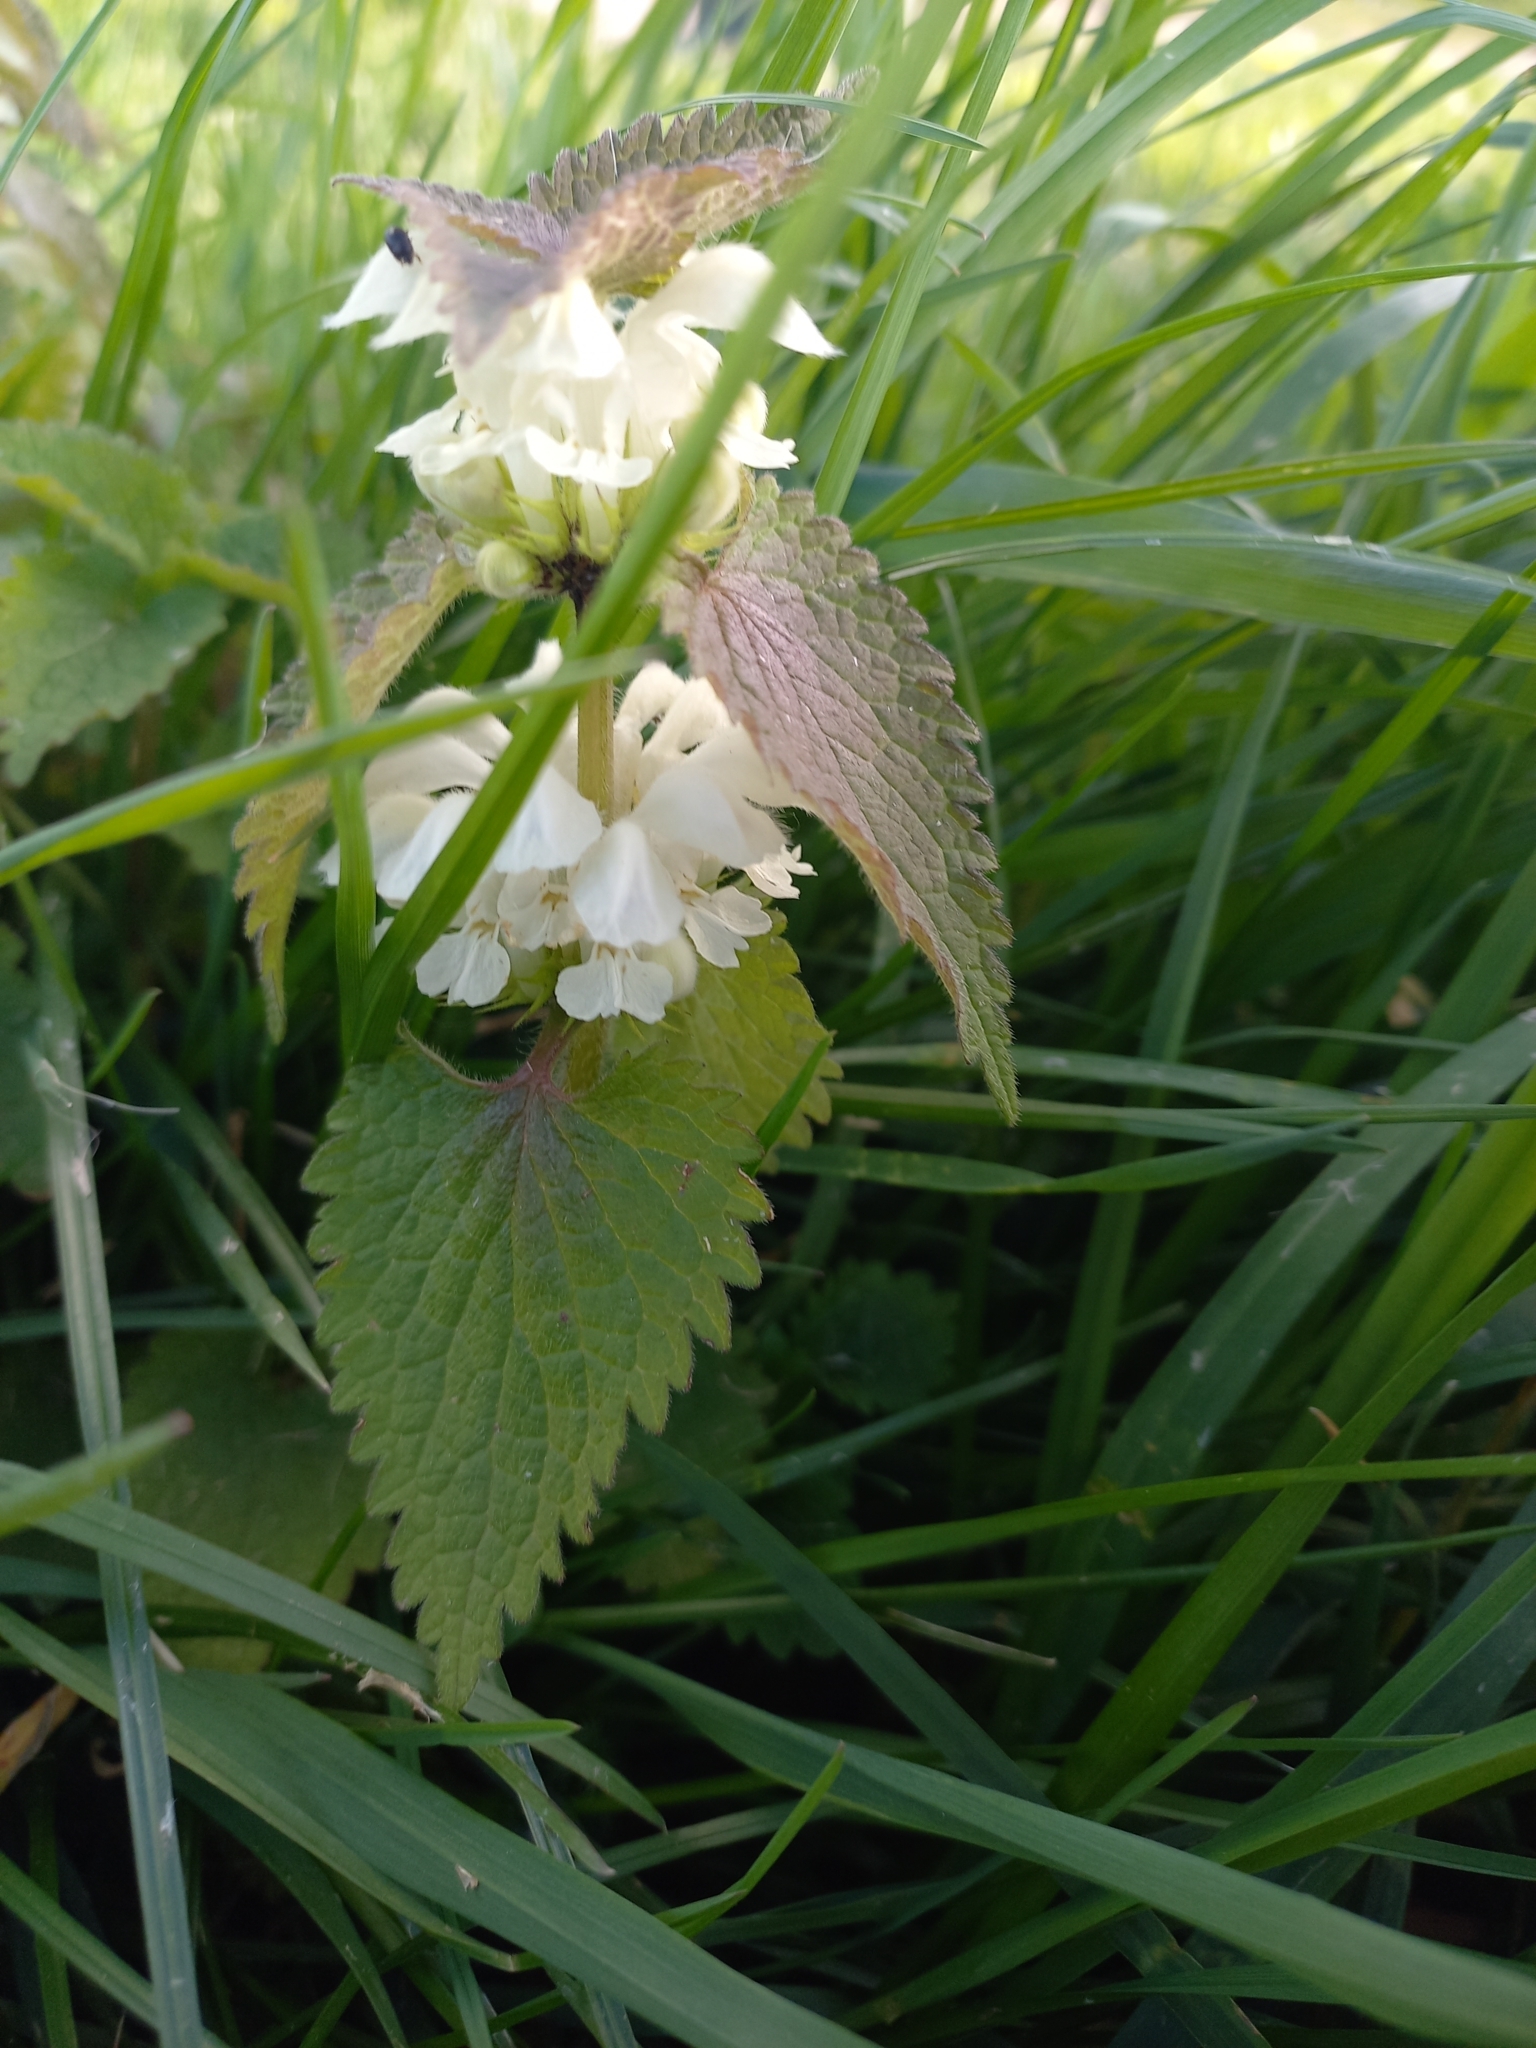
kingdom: Plantae
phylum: Tracheophyta
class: Magnoliopsida
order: Lamiales
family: Lamiaceae
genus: Lamium
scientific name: Lamium album
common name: White dead-nettle
